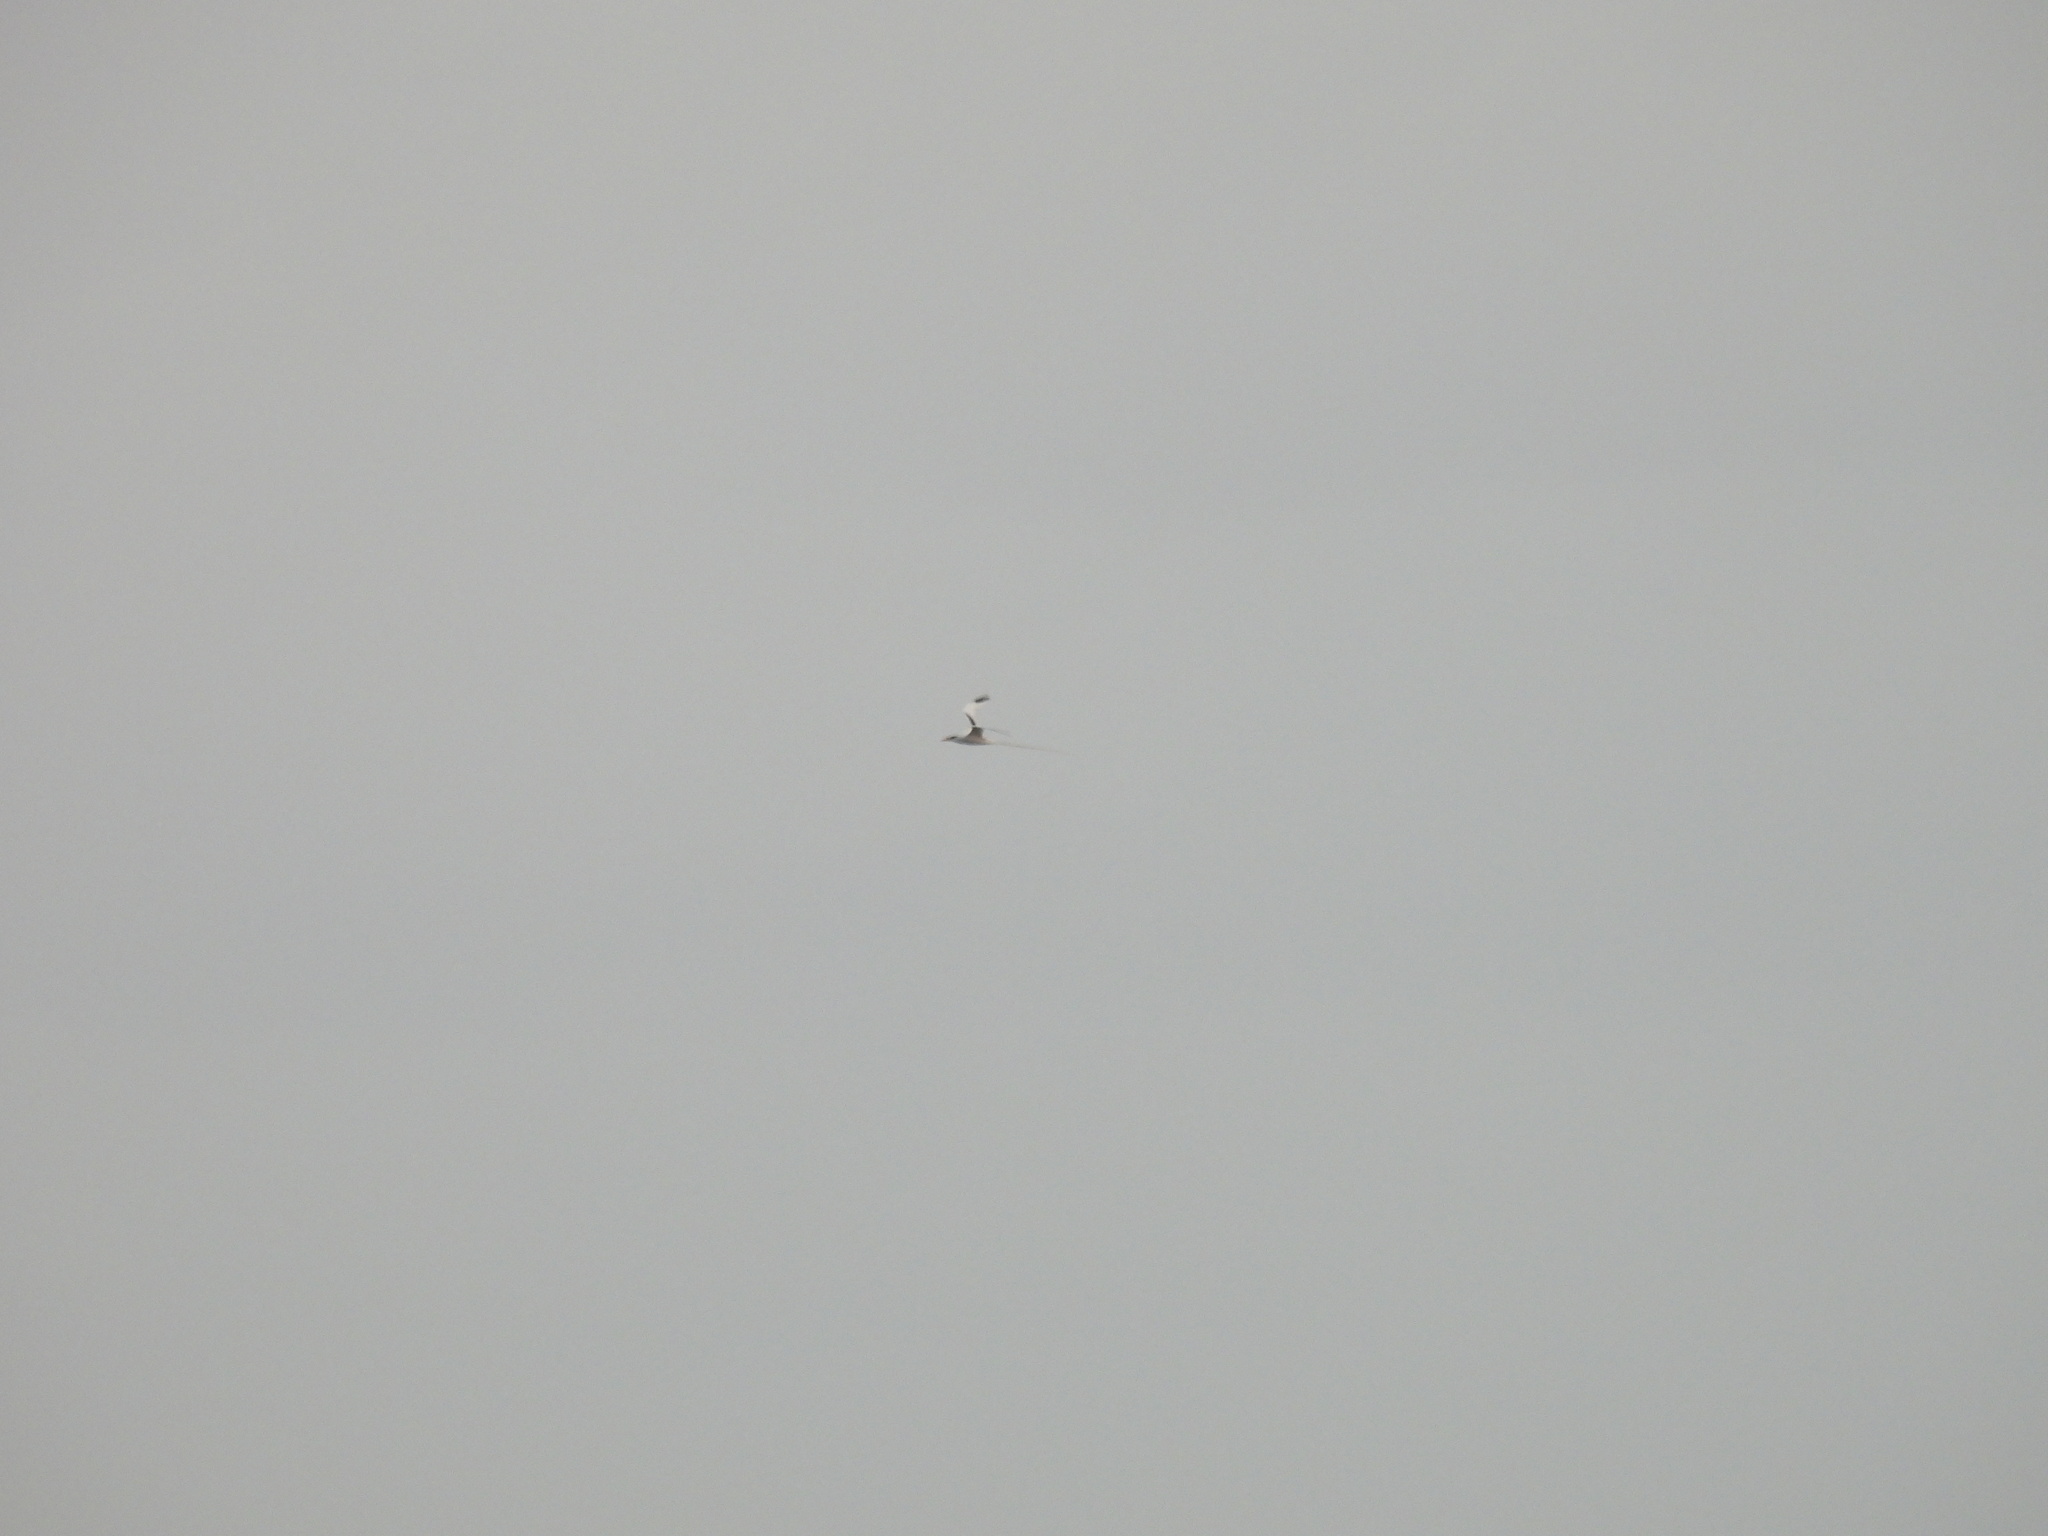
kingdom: Animalia
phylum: Chordata
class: Aves
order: Phaethontiformes
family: Phaethontidae
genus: Phaethon
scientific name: Phaethon lepturus
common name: White-tailed tropicbird
